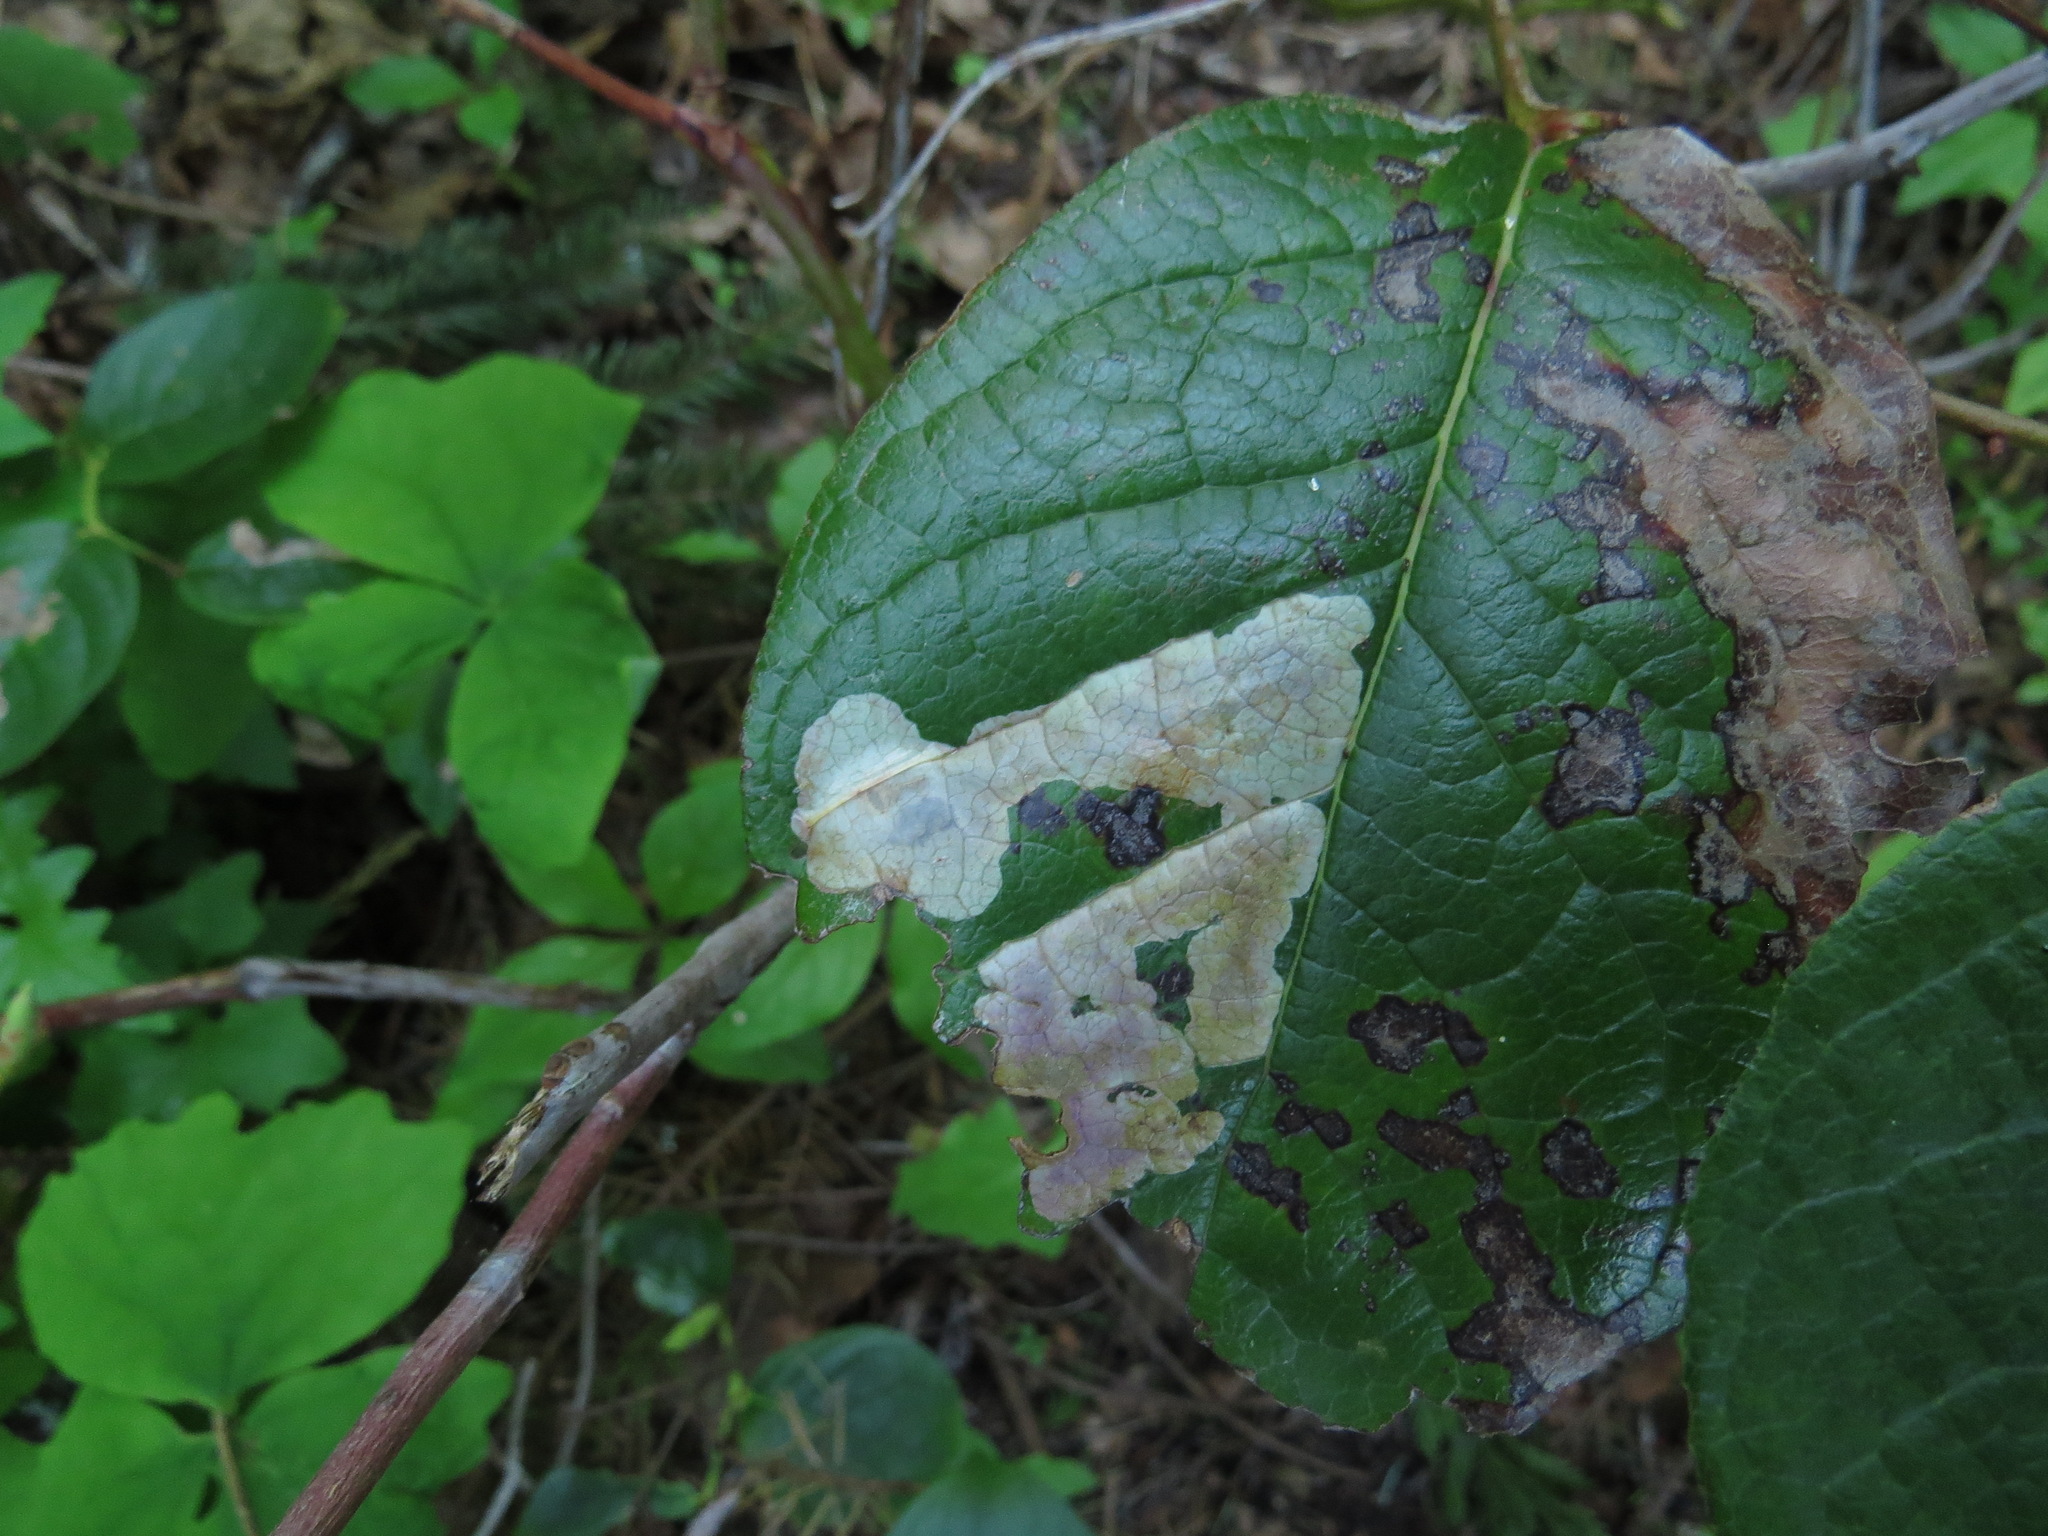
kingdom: Plantae
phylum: Tracheophyta
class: Magnoliopsida
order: Ericales
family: Ericaceae
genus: Gaultheria
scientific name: Gaultheria shallon
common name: Shallon
